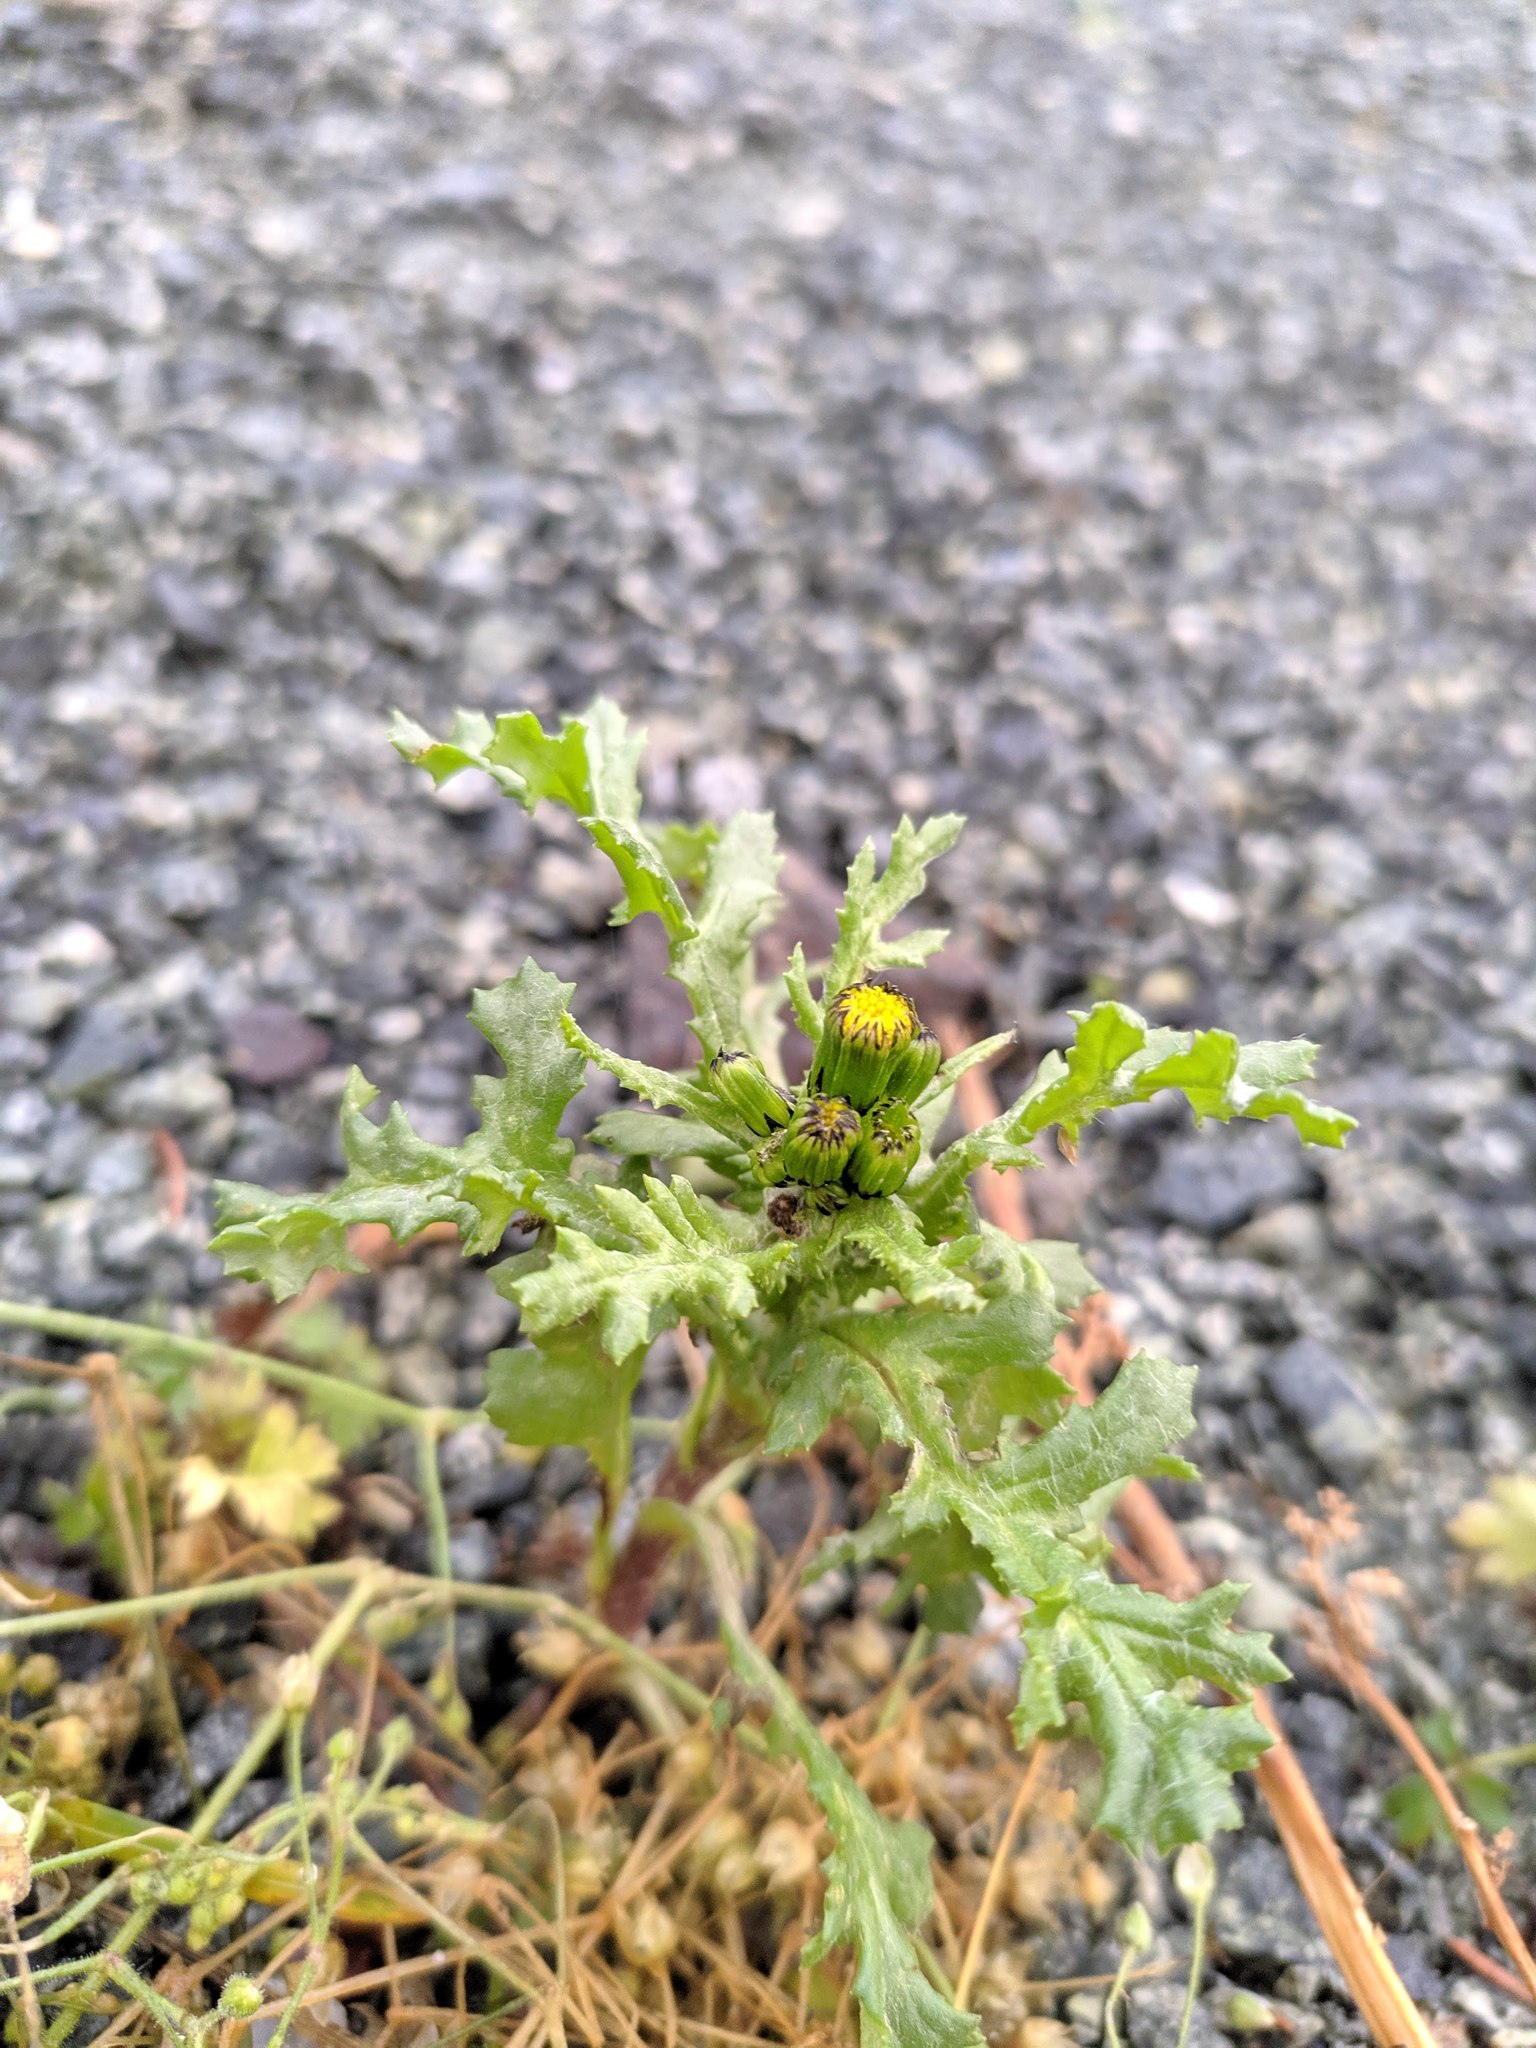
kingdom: Plantae
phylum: Tracheophyta
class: Magnoliopsida
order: Asterales
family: Asteraceae
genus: Senecio
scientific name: Senecio vulgaris
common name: Old-man-in-the-spring
